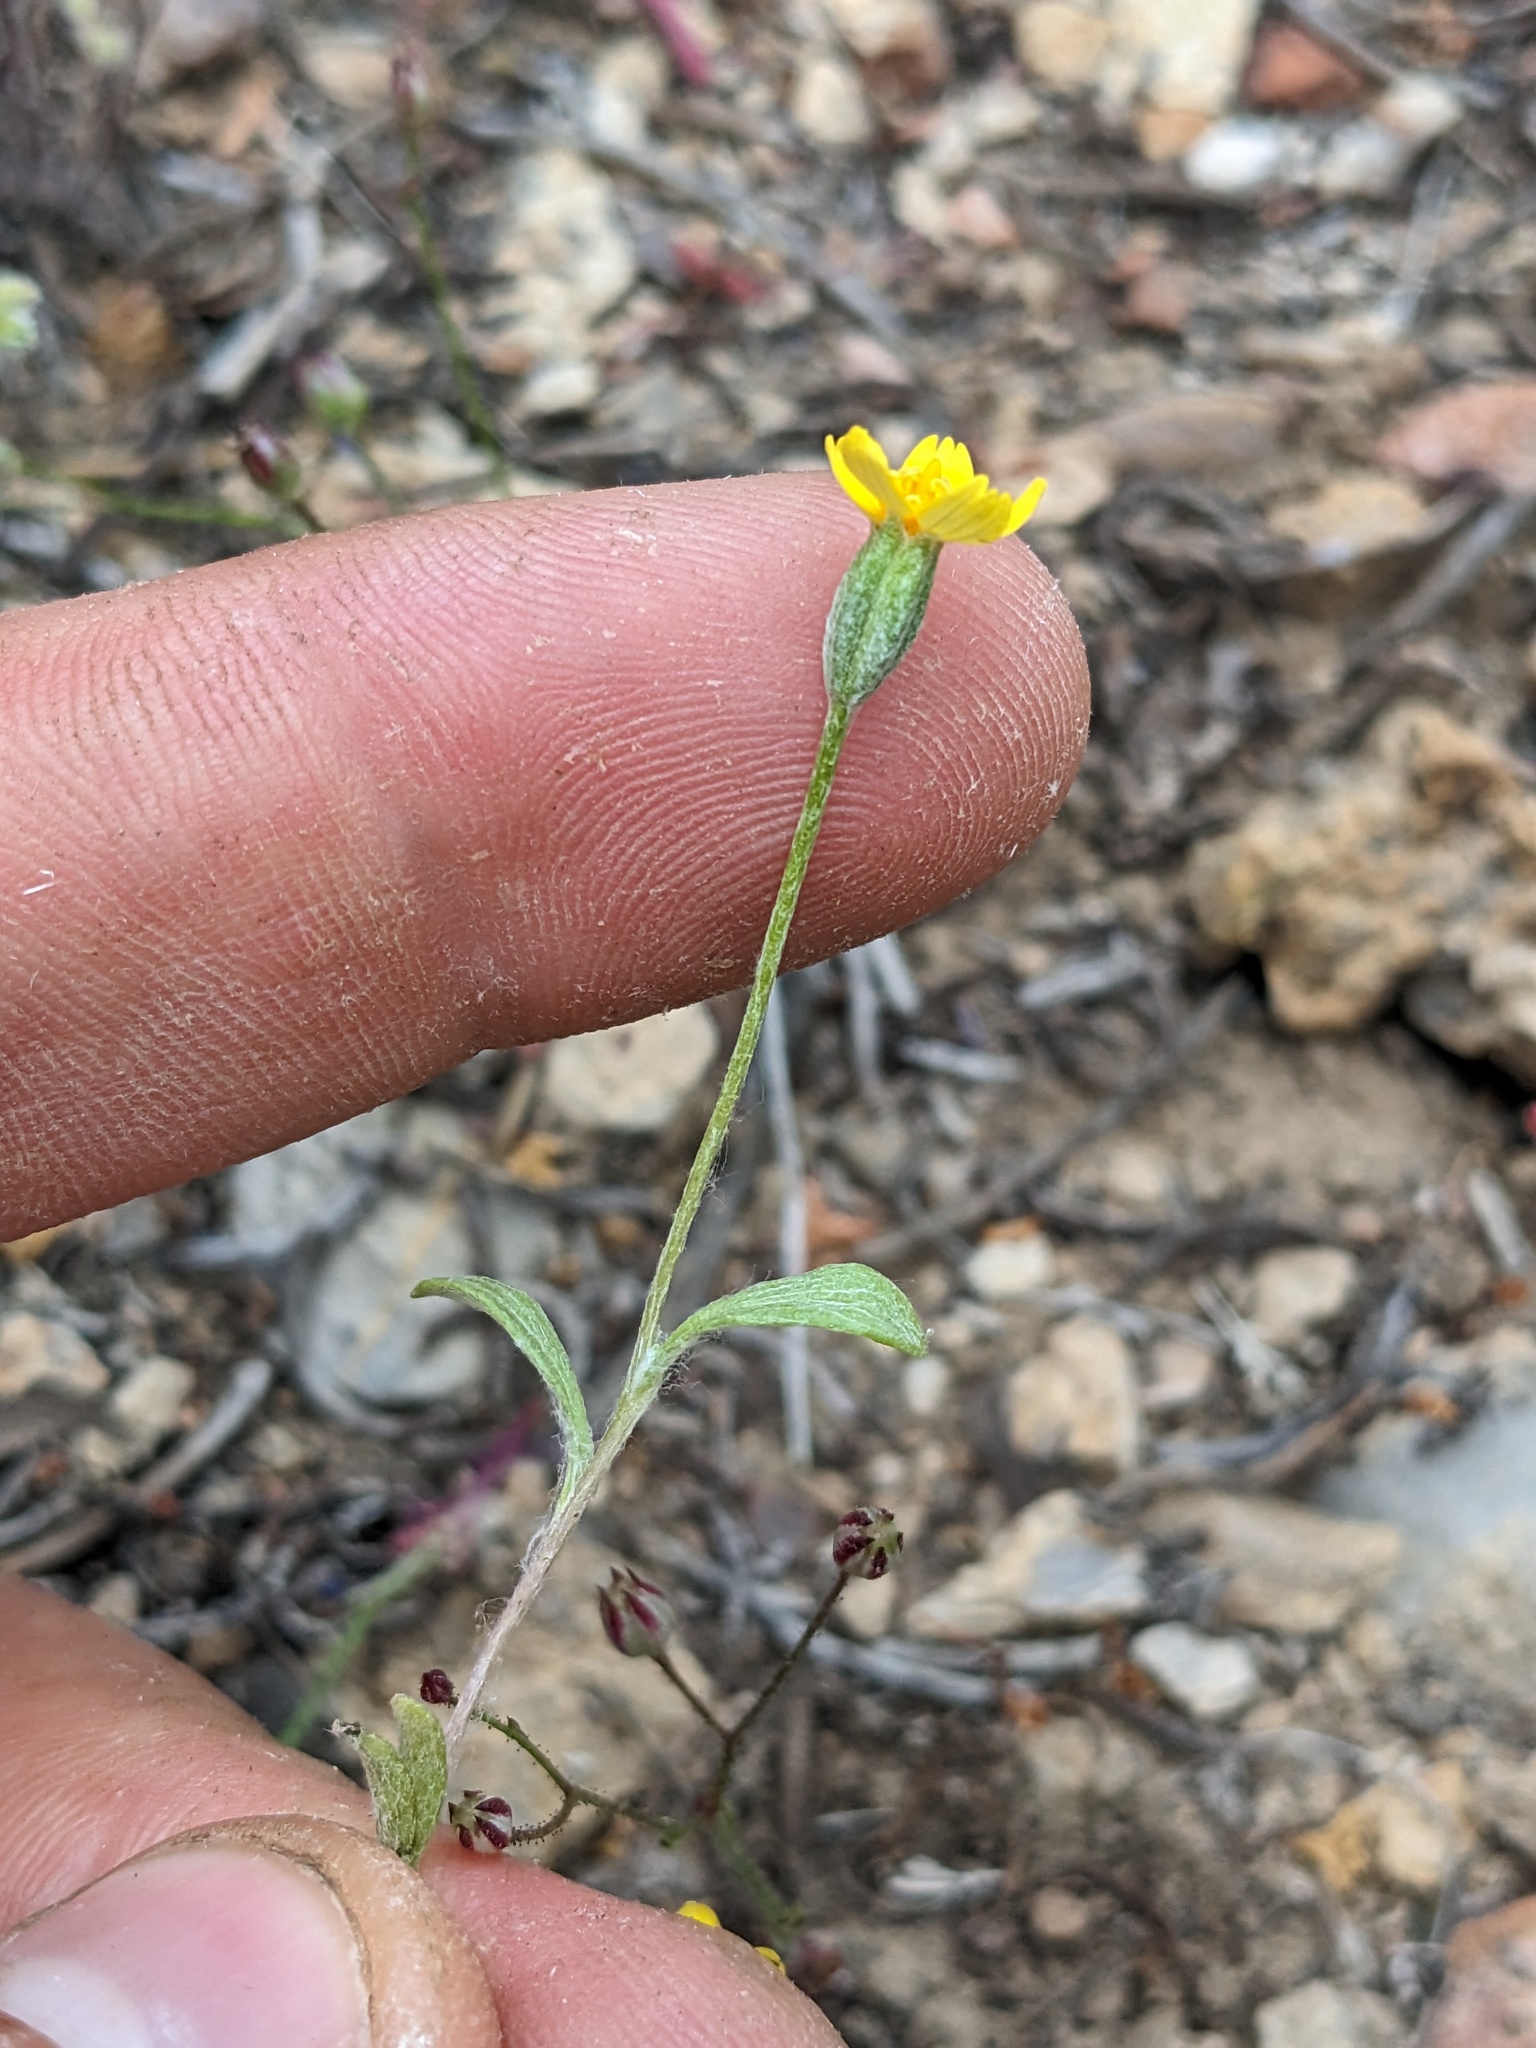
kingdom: Plantae
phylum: Tracheophyta
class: Magnoliopsida
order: Asterales
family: Asteraceae
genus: Syntrichopappus
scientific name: Syntrichopappus fremontii
